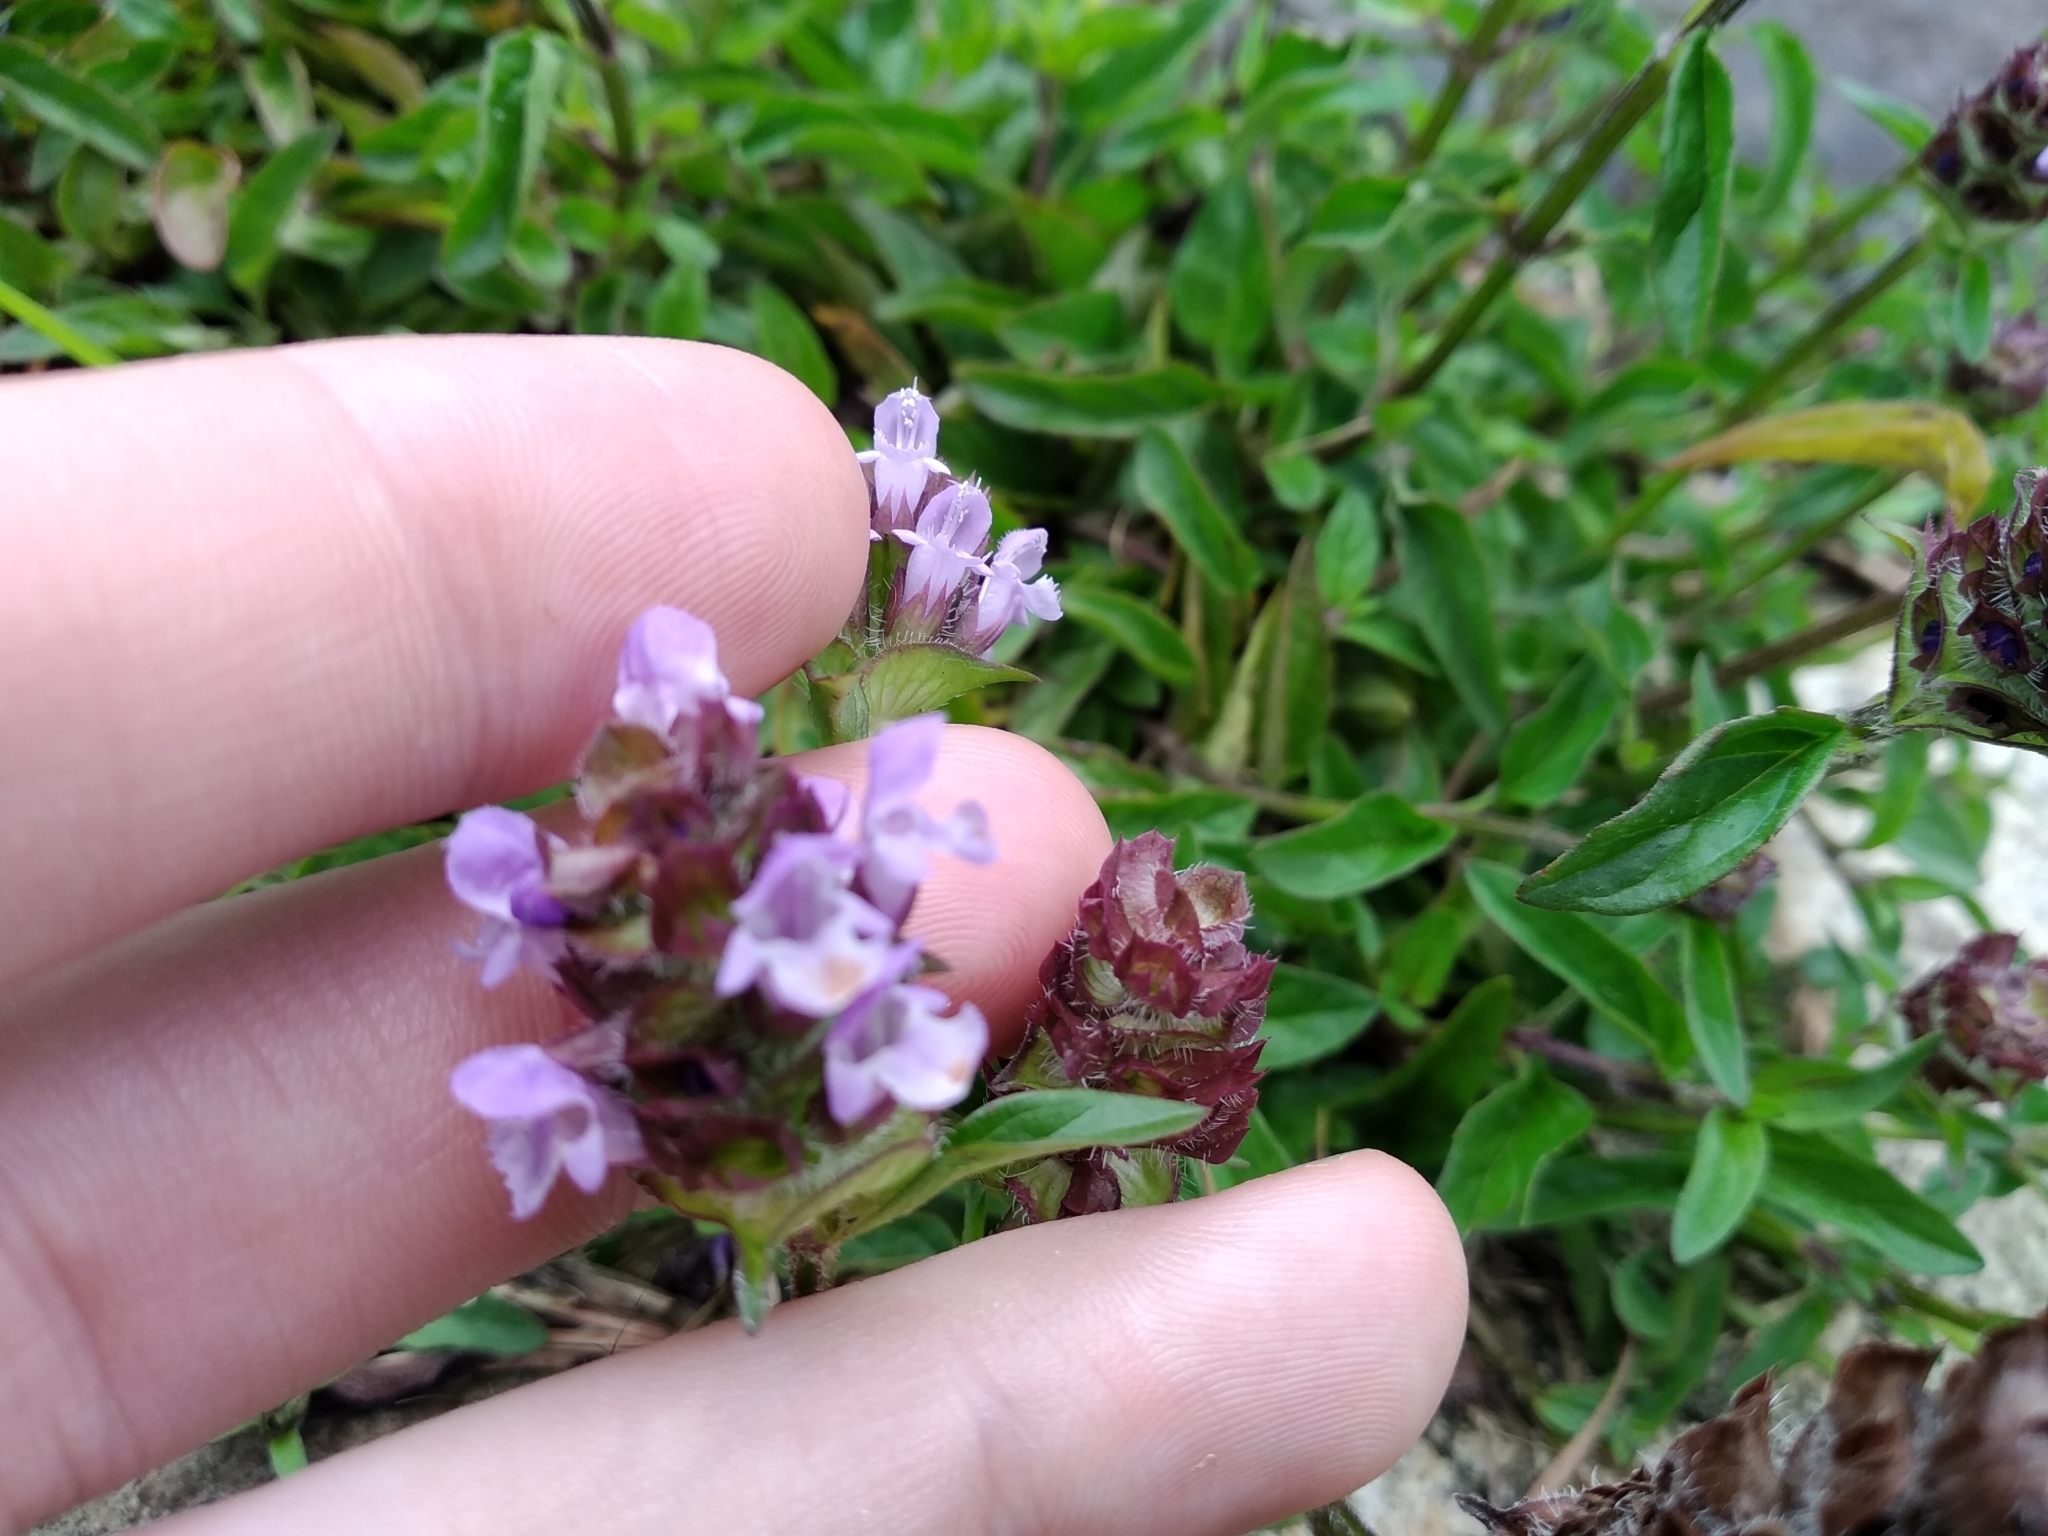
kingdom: Plantae
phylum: Tracheophyta
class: Magnoliopsida
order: Lamiales
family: Lamiaceae
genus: Prunella
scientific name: Prunella vulgaris
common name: Heal-all
